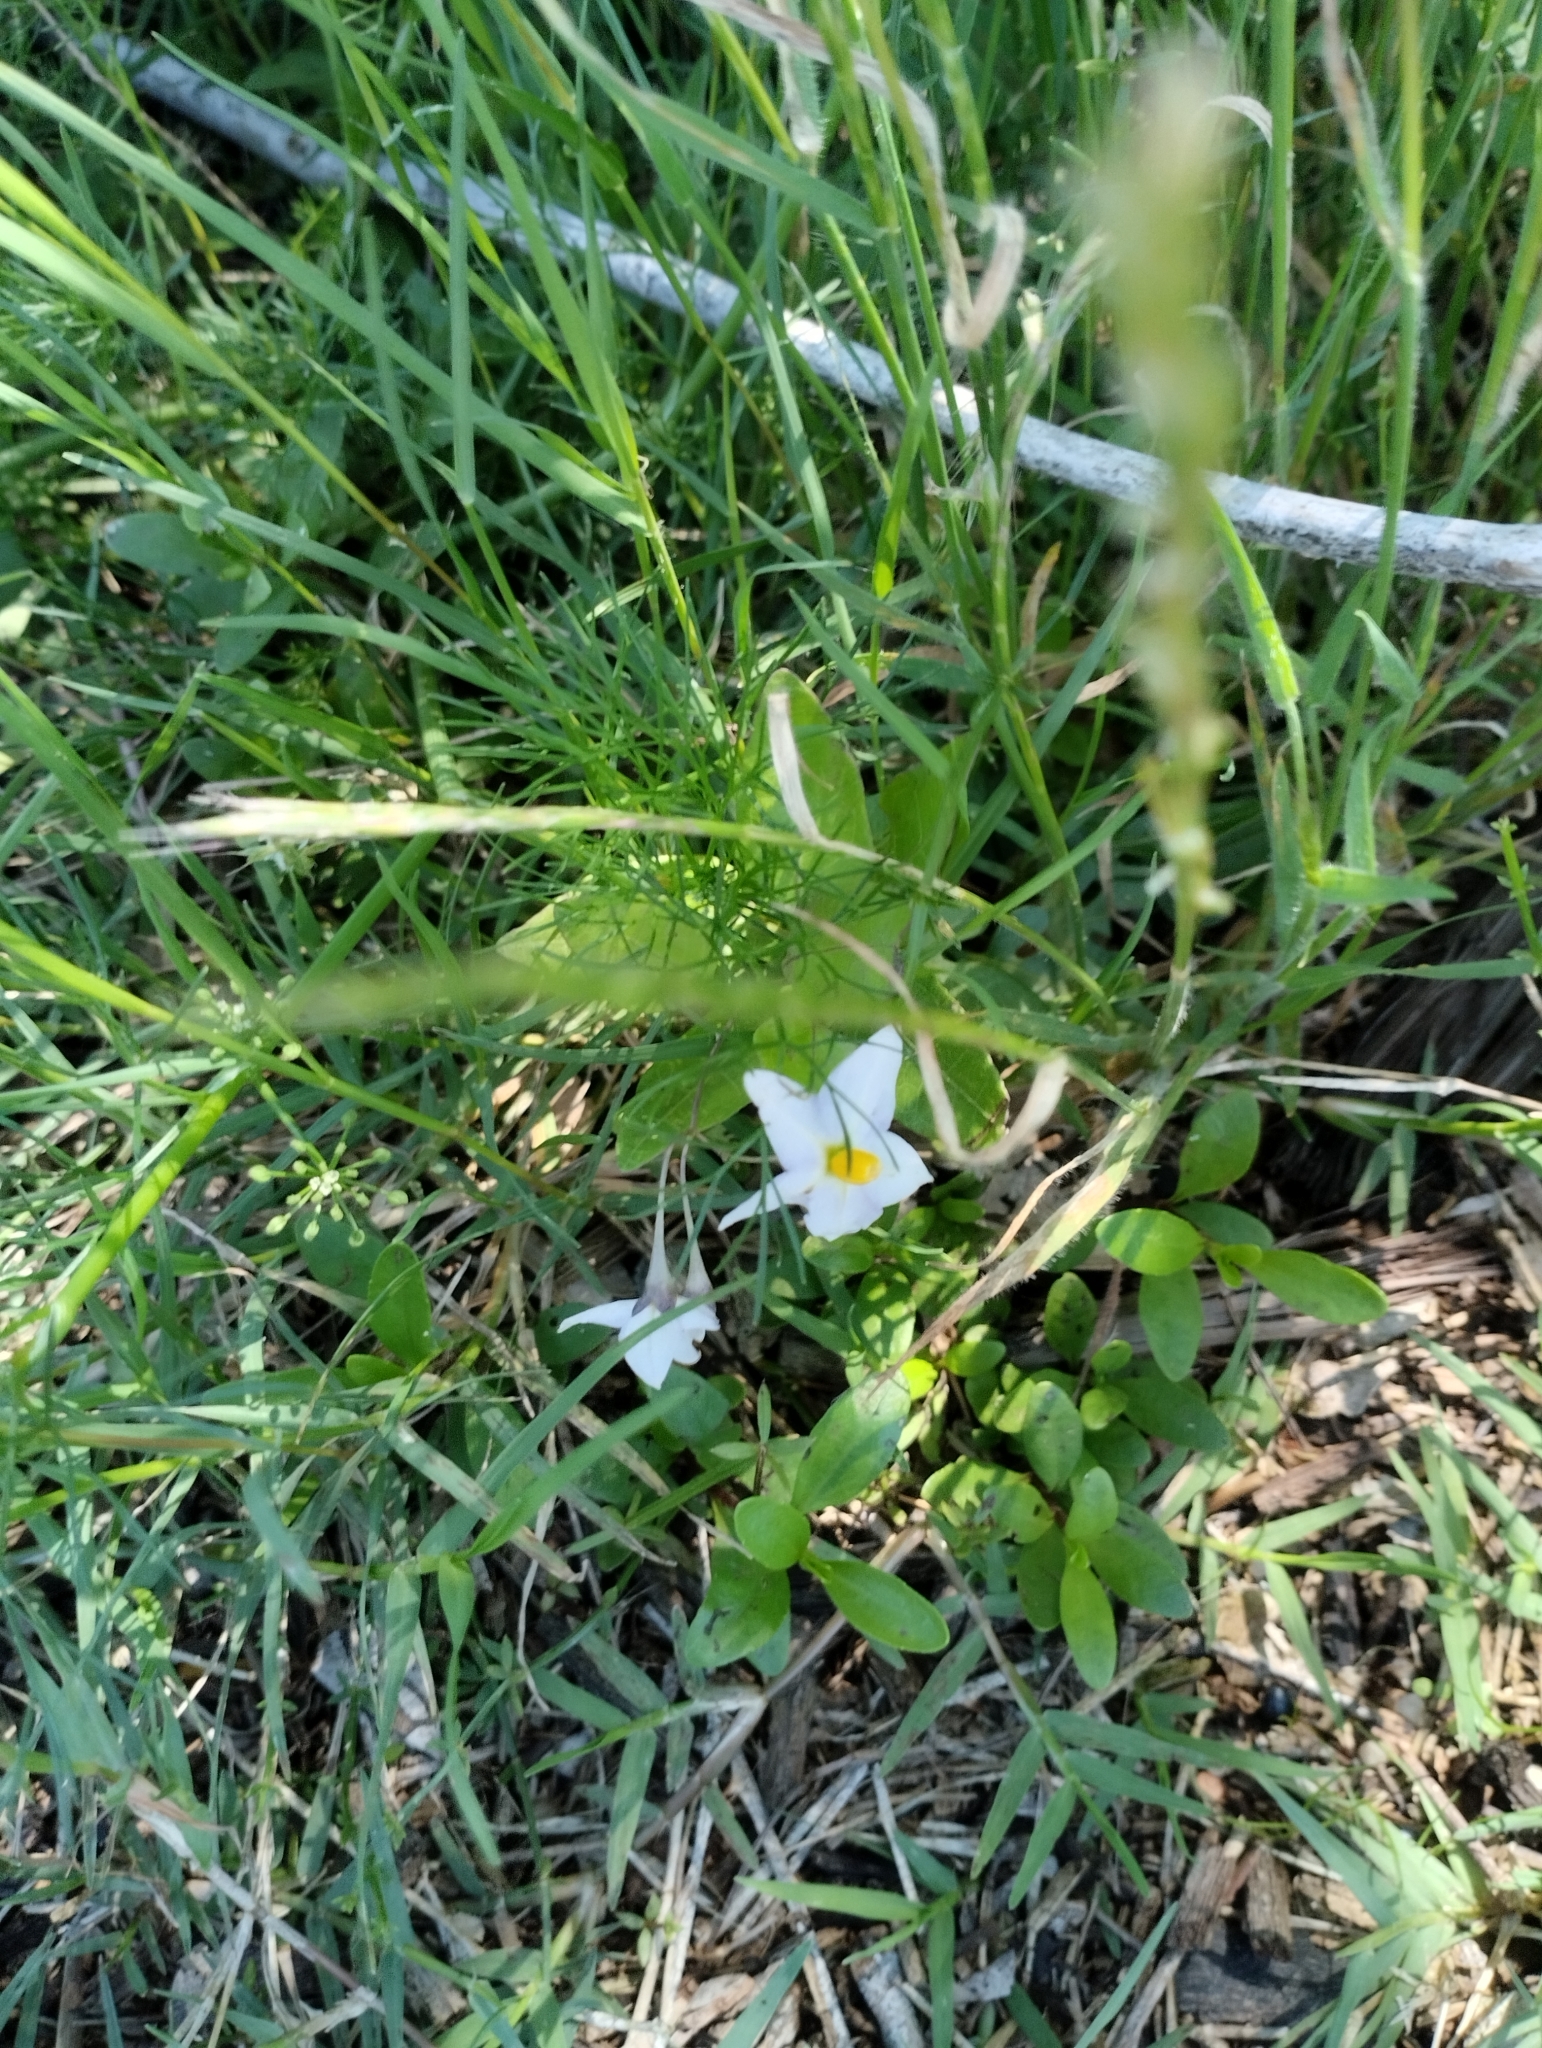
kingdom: Plantae
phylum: Tracheophyta
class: Magnoliopsida
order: Solanales
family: Solanaceae
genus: Solanum
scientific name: Solanum laxum
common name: Nightshade
